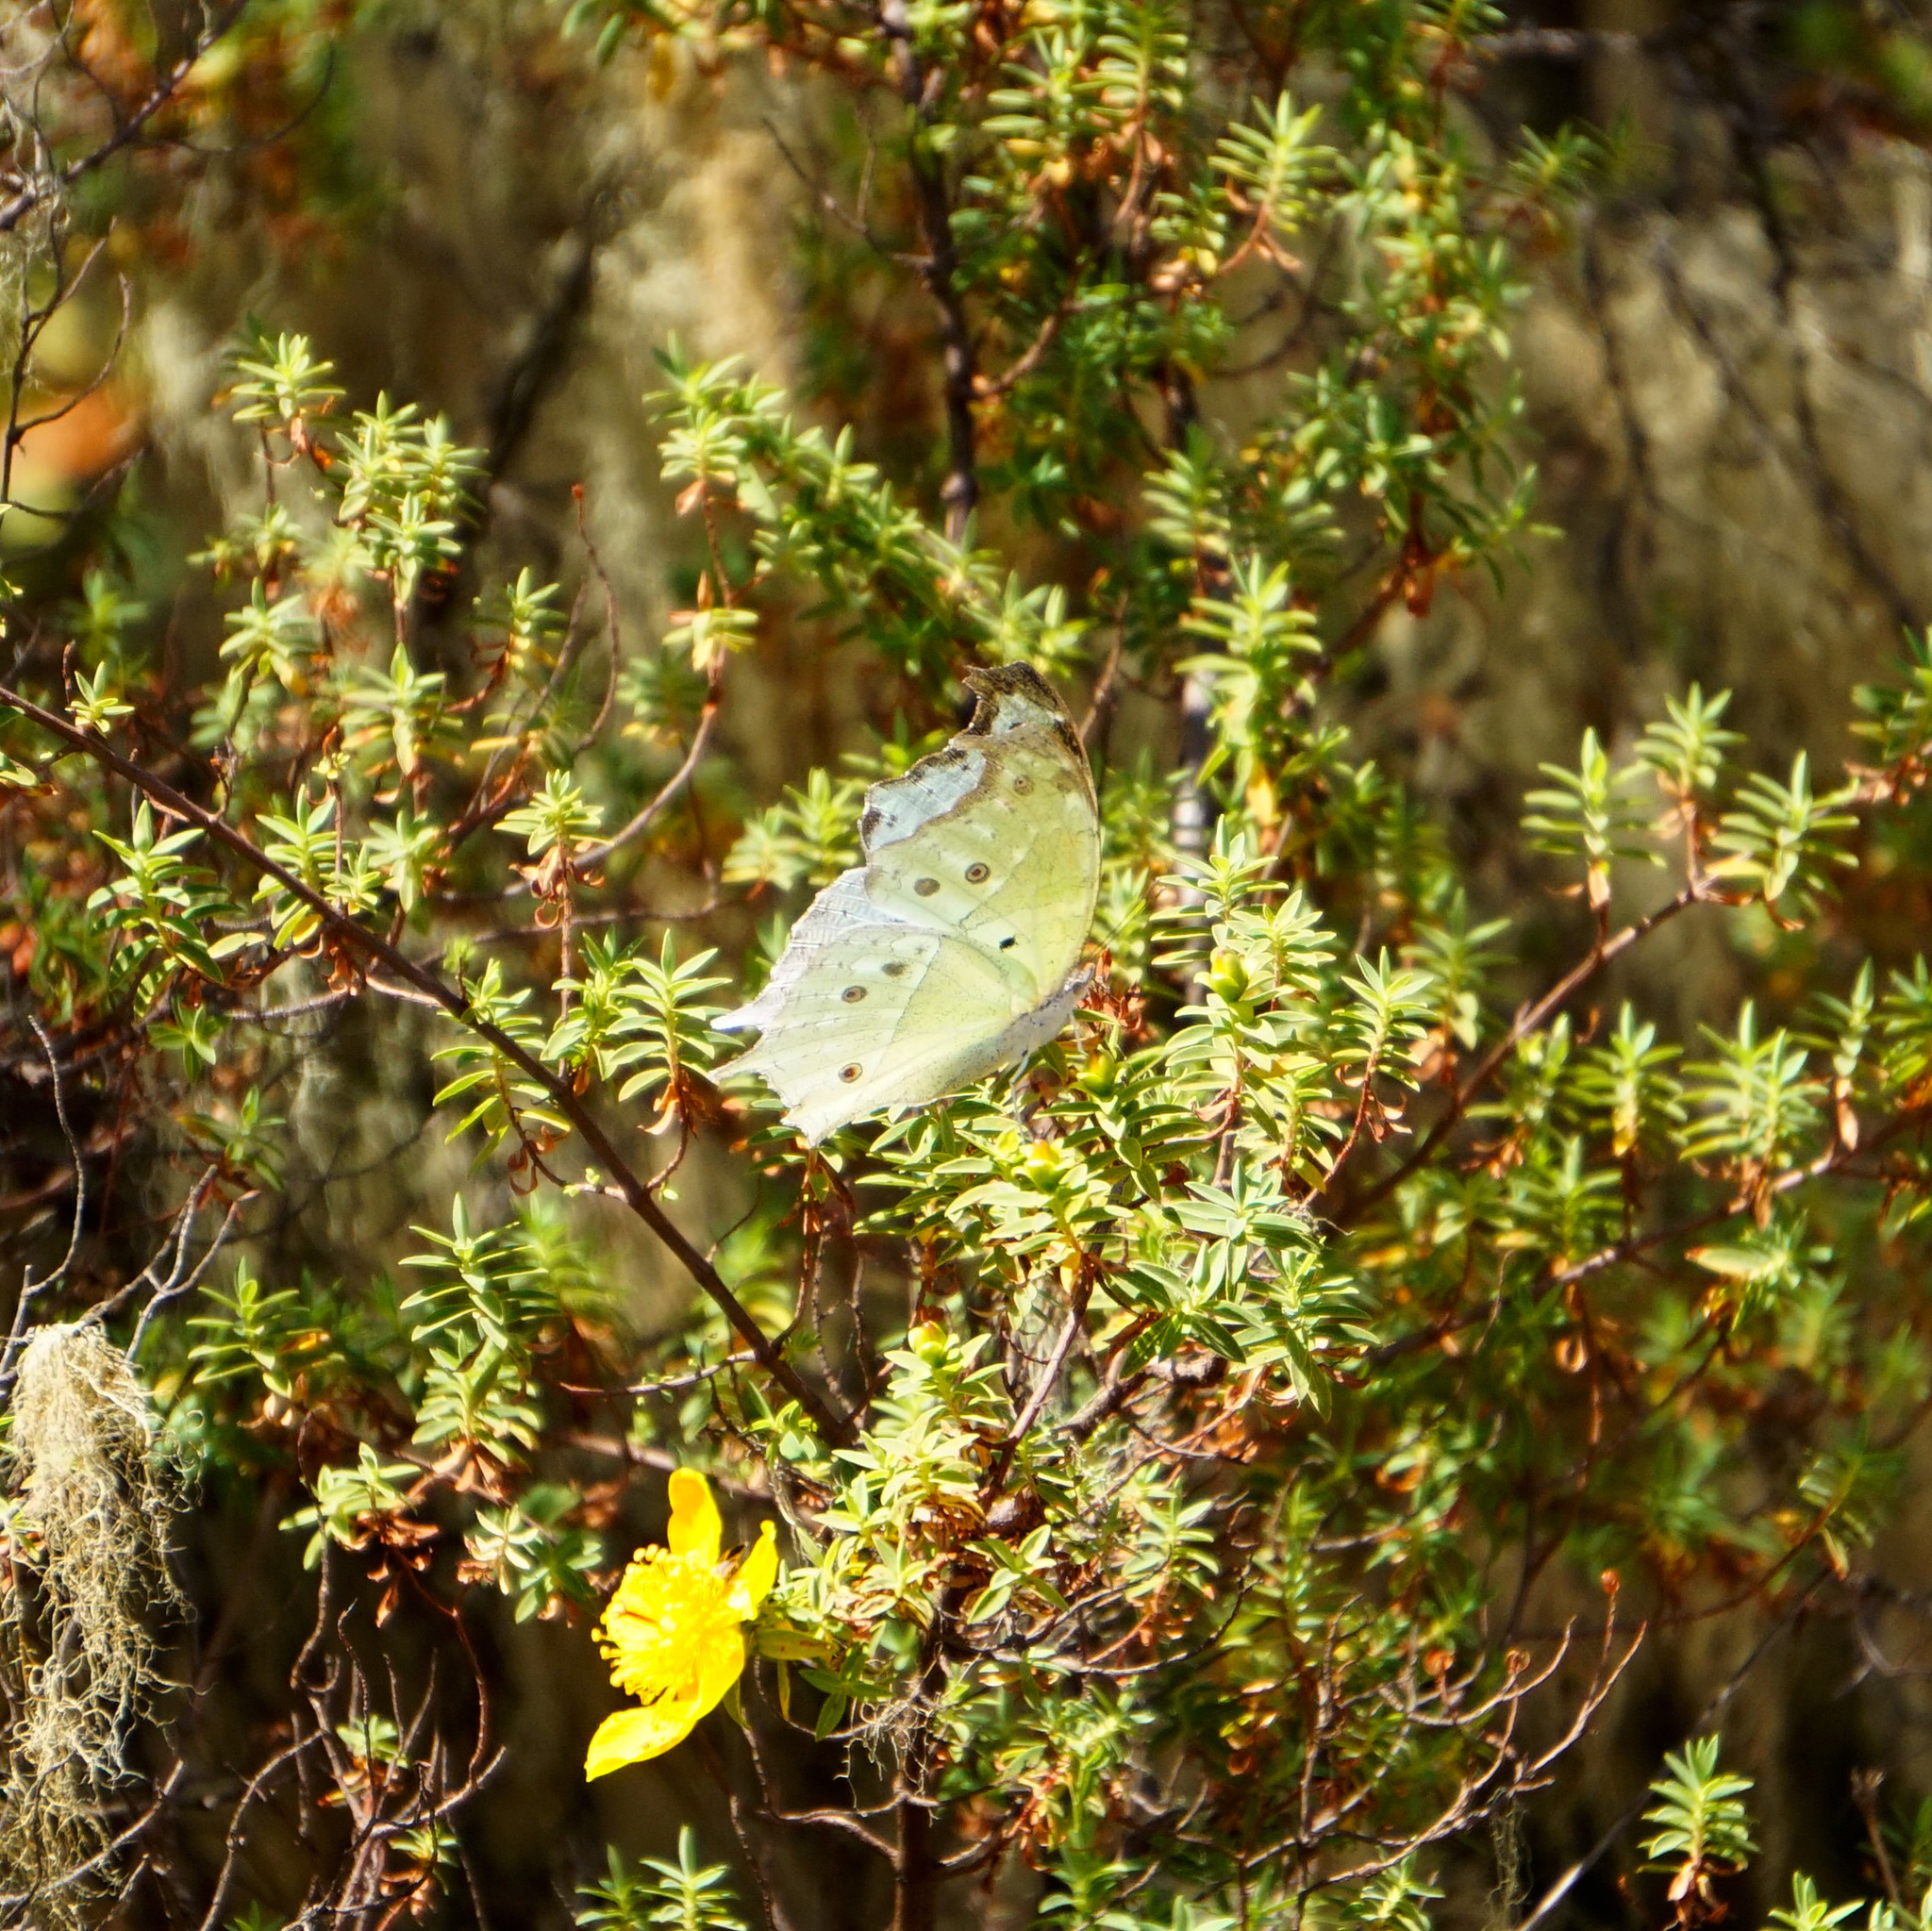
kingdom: Animalia
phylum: Arthropoda
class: Insecta
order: Lepidoptera
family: Nymphalidae
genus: Salamis
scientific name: Salamis Protogoniomorpha parhassus
